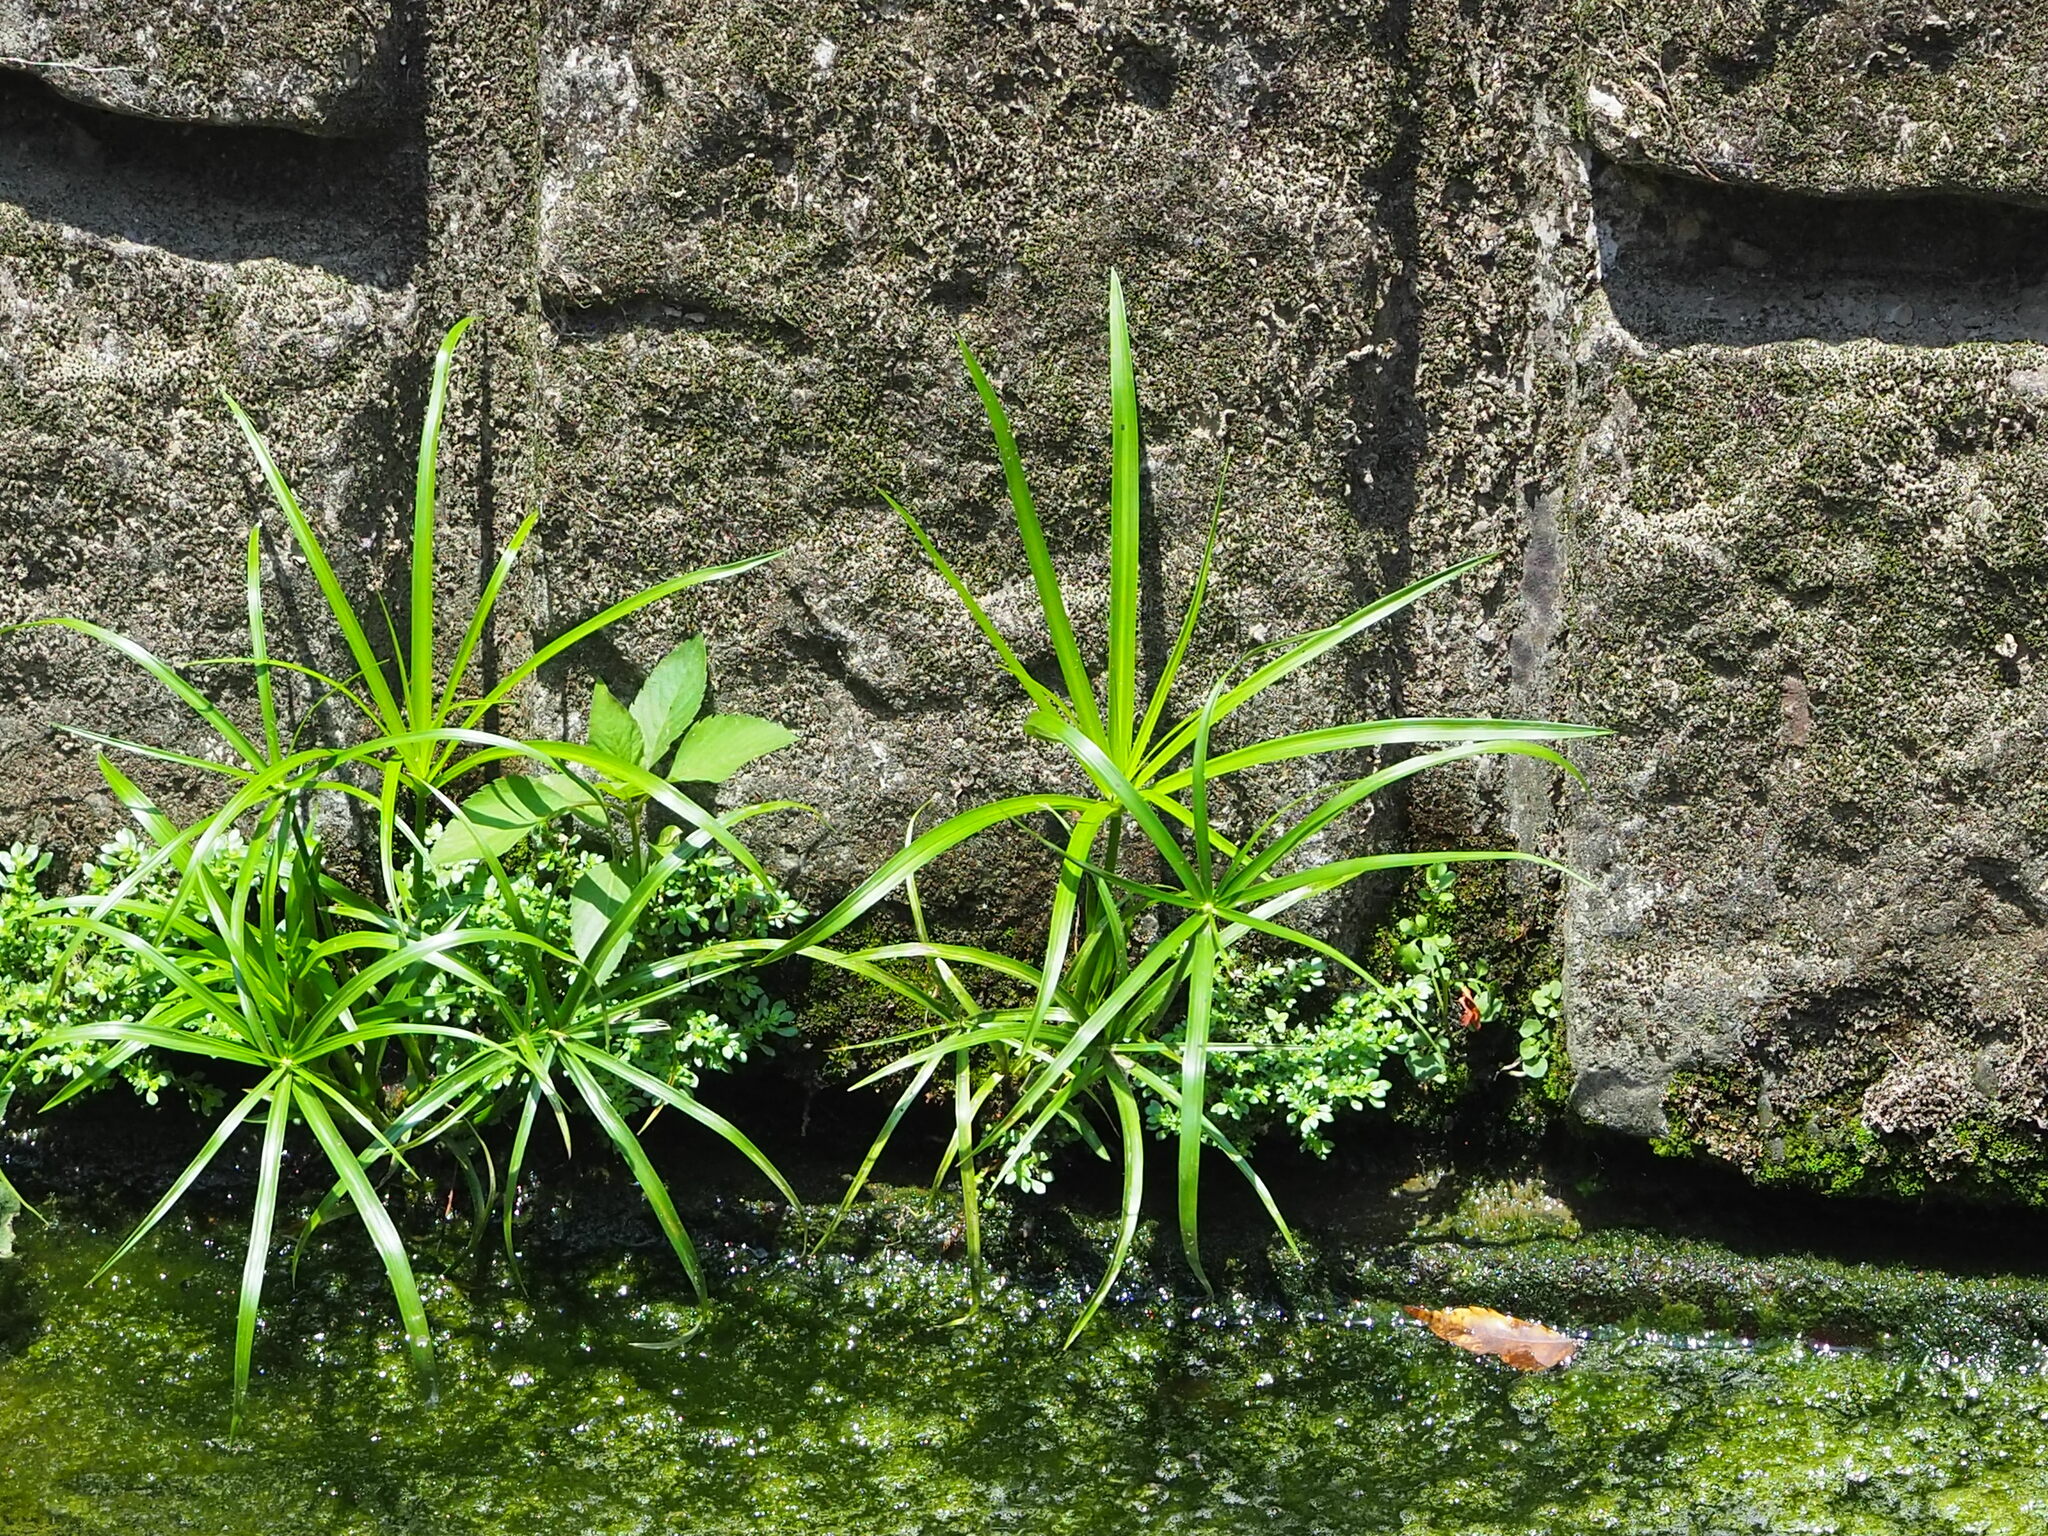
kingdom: Plantae
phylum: Tracheophyta
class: Liliopsida
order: Poales
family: Cyperaceae
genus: Cyperus
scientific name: Cyperus alternifolius
